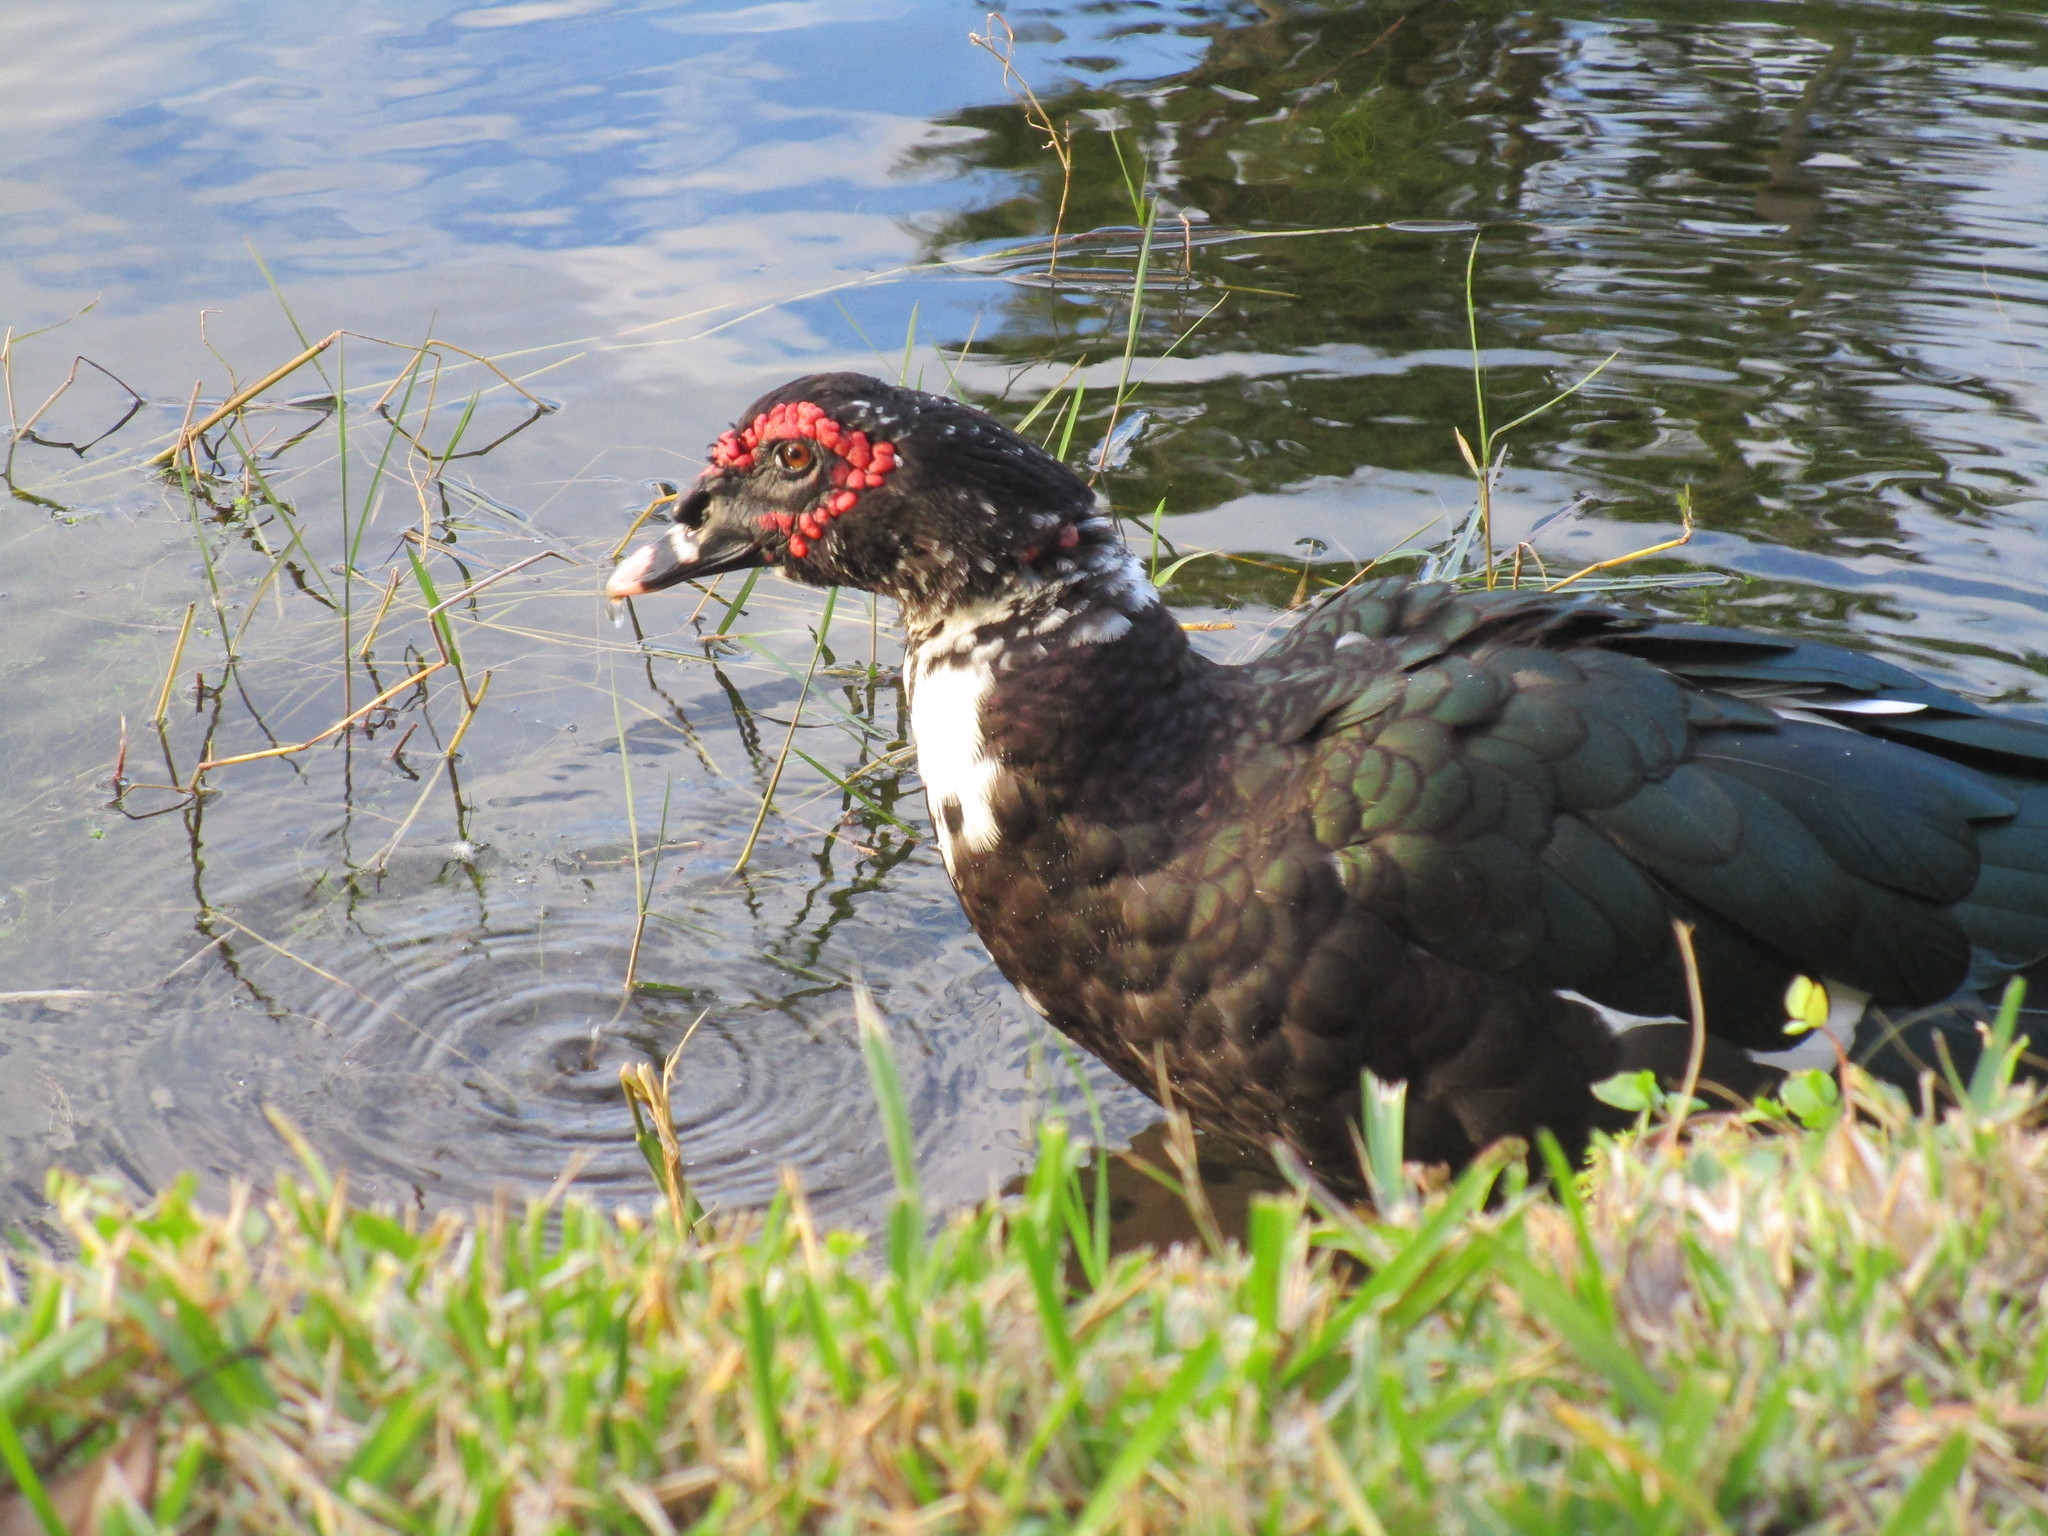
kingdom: Animalia
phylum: Chordata
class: Aves
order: Anseriformes
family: Anatidae
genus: Cairina
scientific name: Cairina moschata
